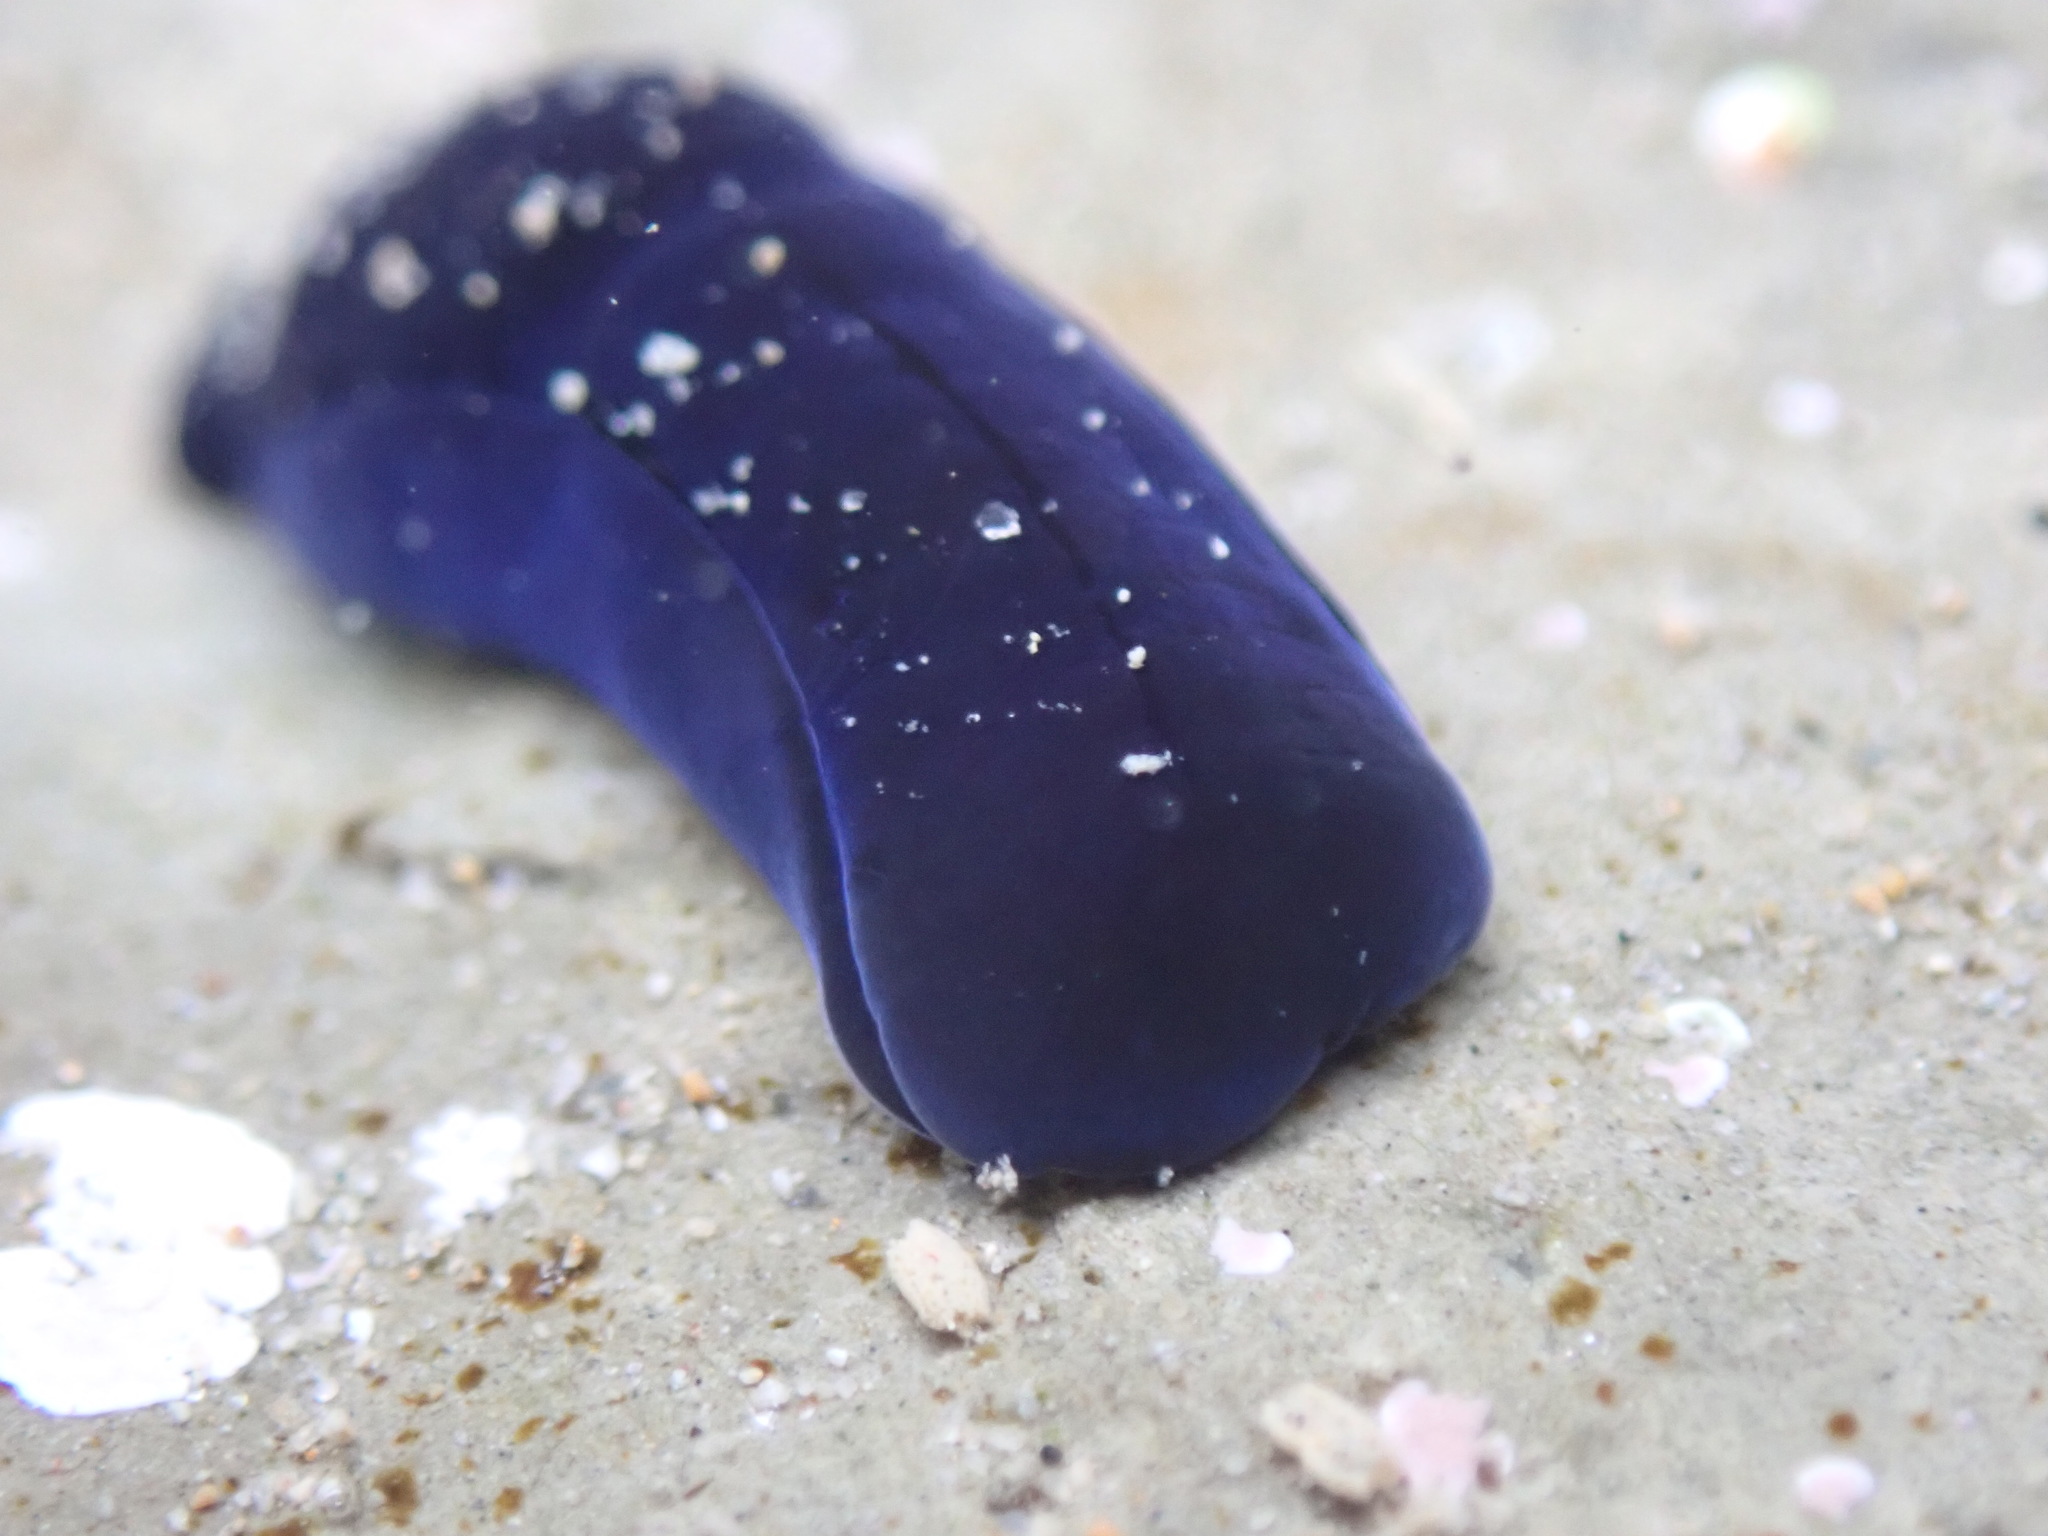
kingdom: Animalia
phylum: Mollusca
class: Gastropoda
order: Cephalaspidea
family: Aglajidae
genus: Melanochlamys
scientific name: Melanochlamys cylindrica
